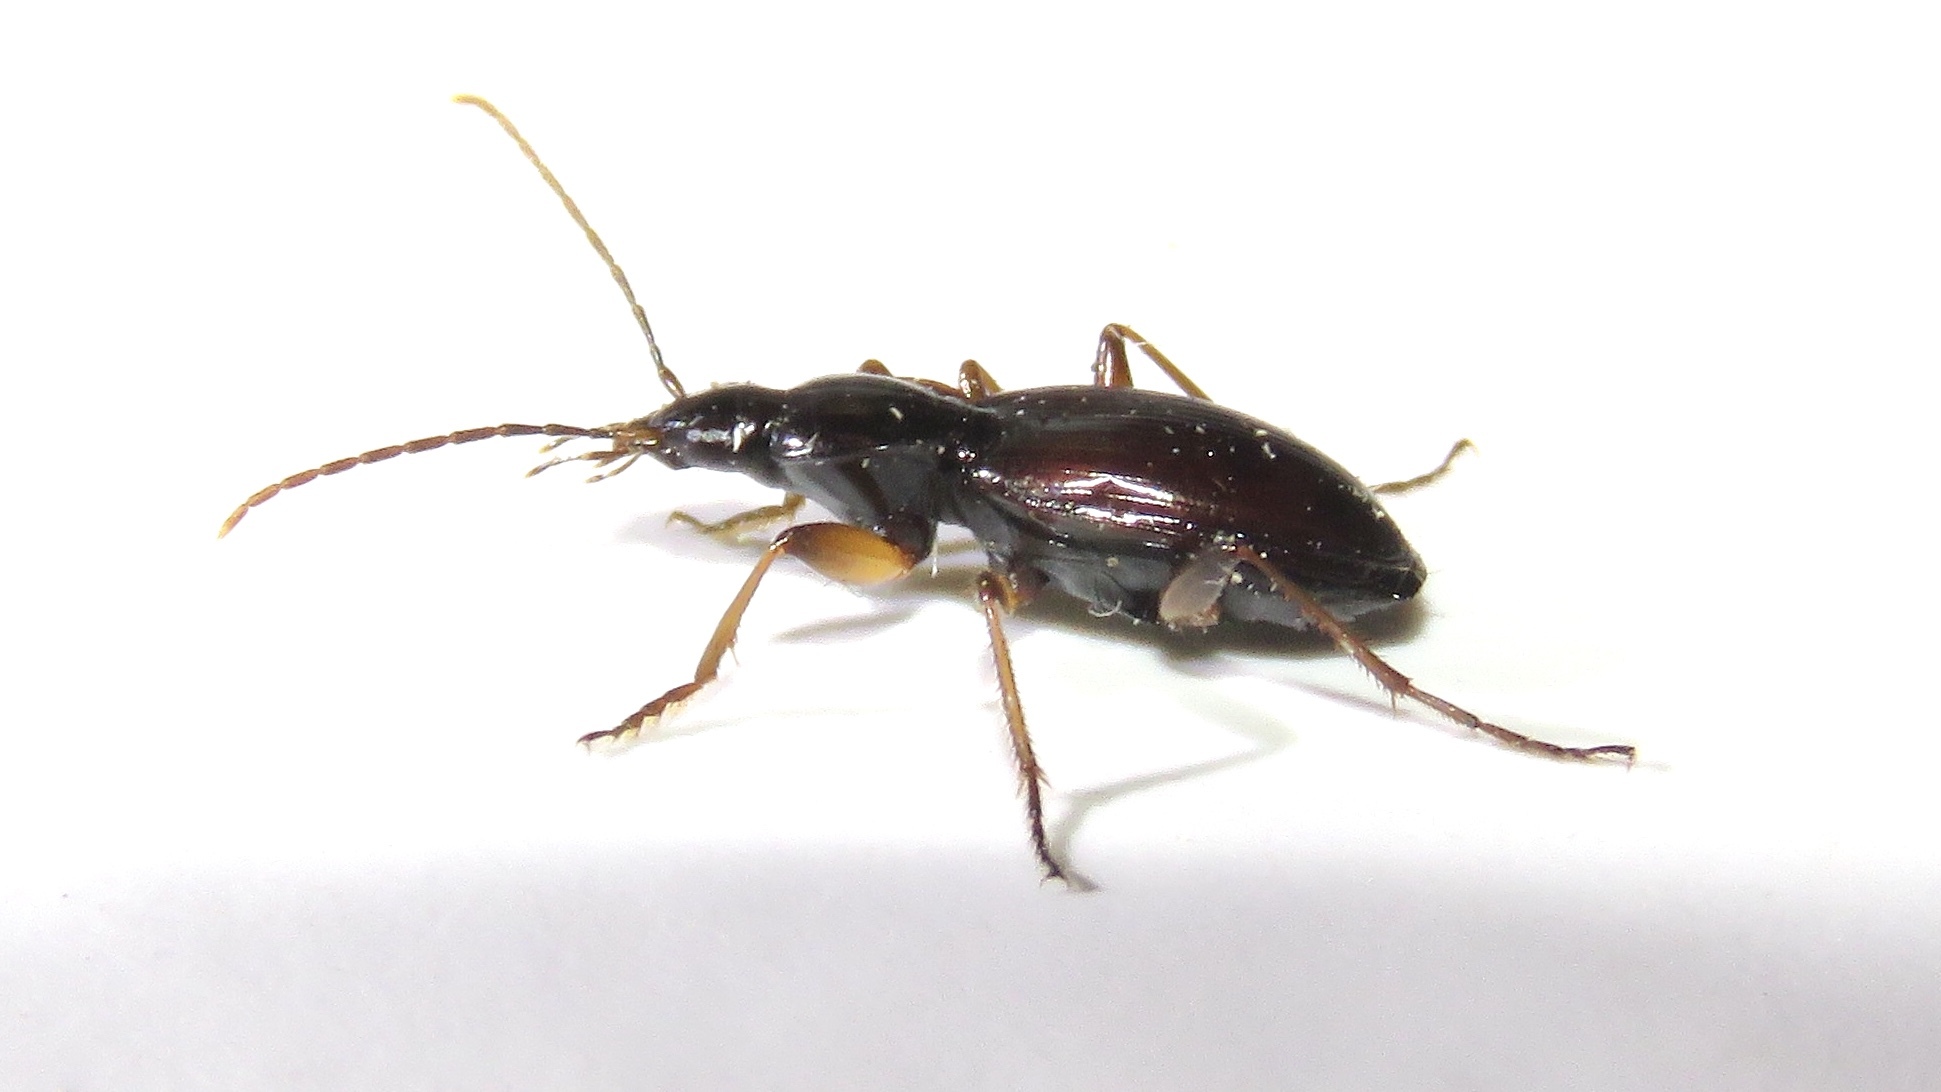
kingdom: Animalia
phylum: Arthropoda
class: Insecta
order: Coleoptera
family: Carabidae
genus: Agonum
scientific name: Agonum gratiosum
